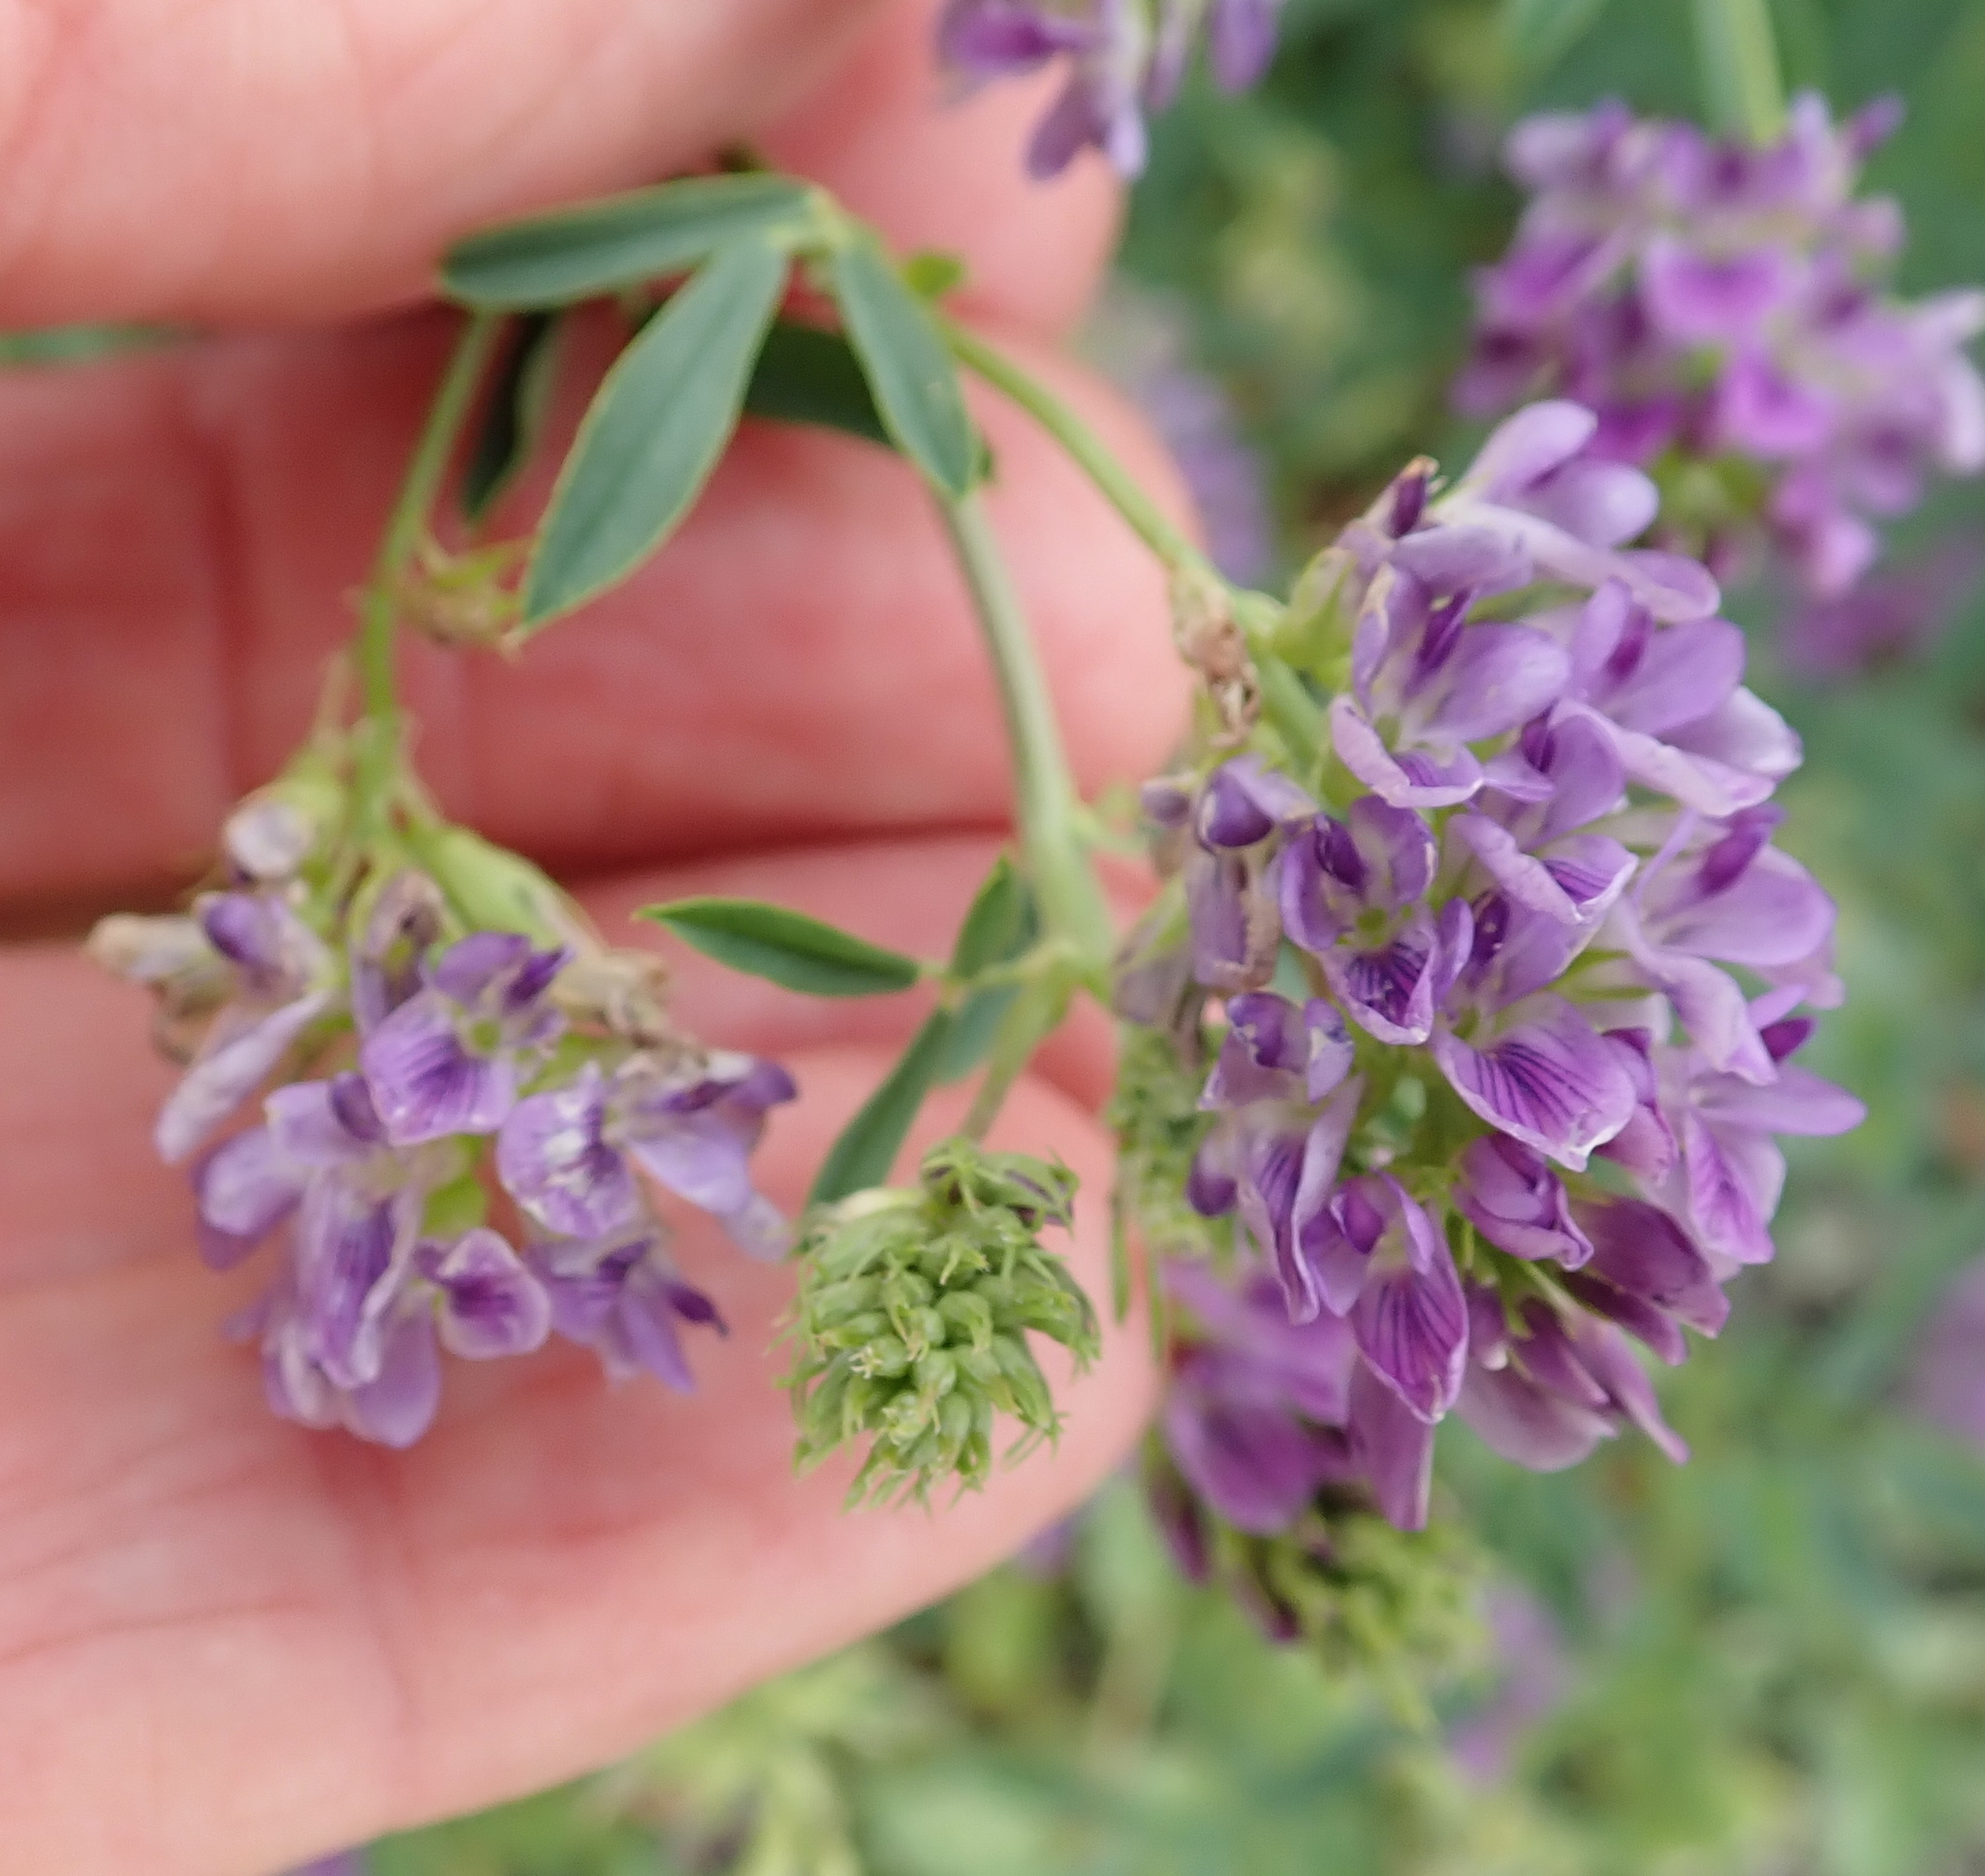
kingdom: Plantae
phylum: Tracheophyta
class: Magnoliopsida
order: Fabales
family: Fabaceae
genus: Medicago
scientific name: Medicago sativa
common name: Alfalfa
